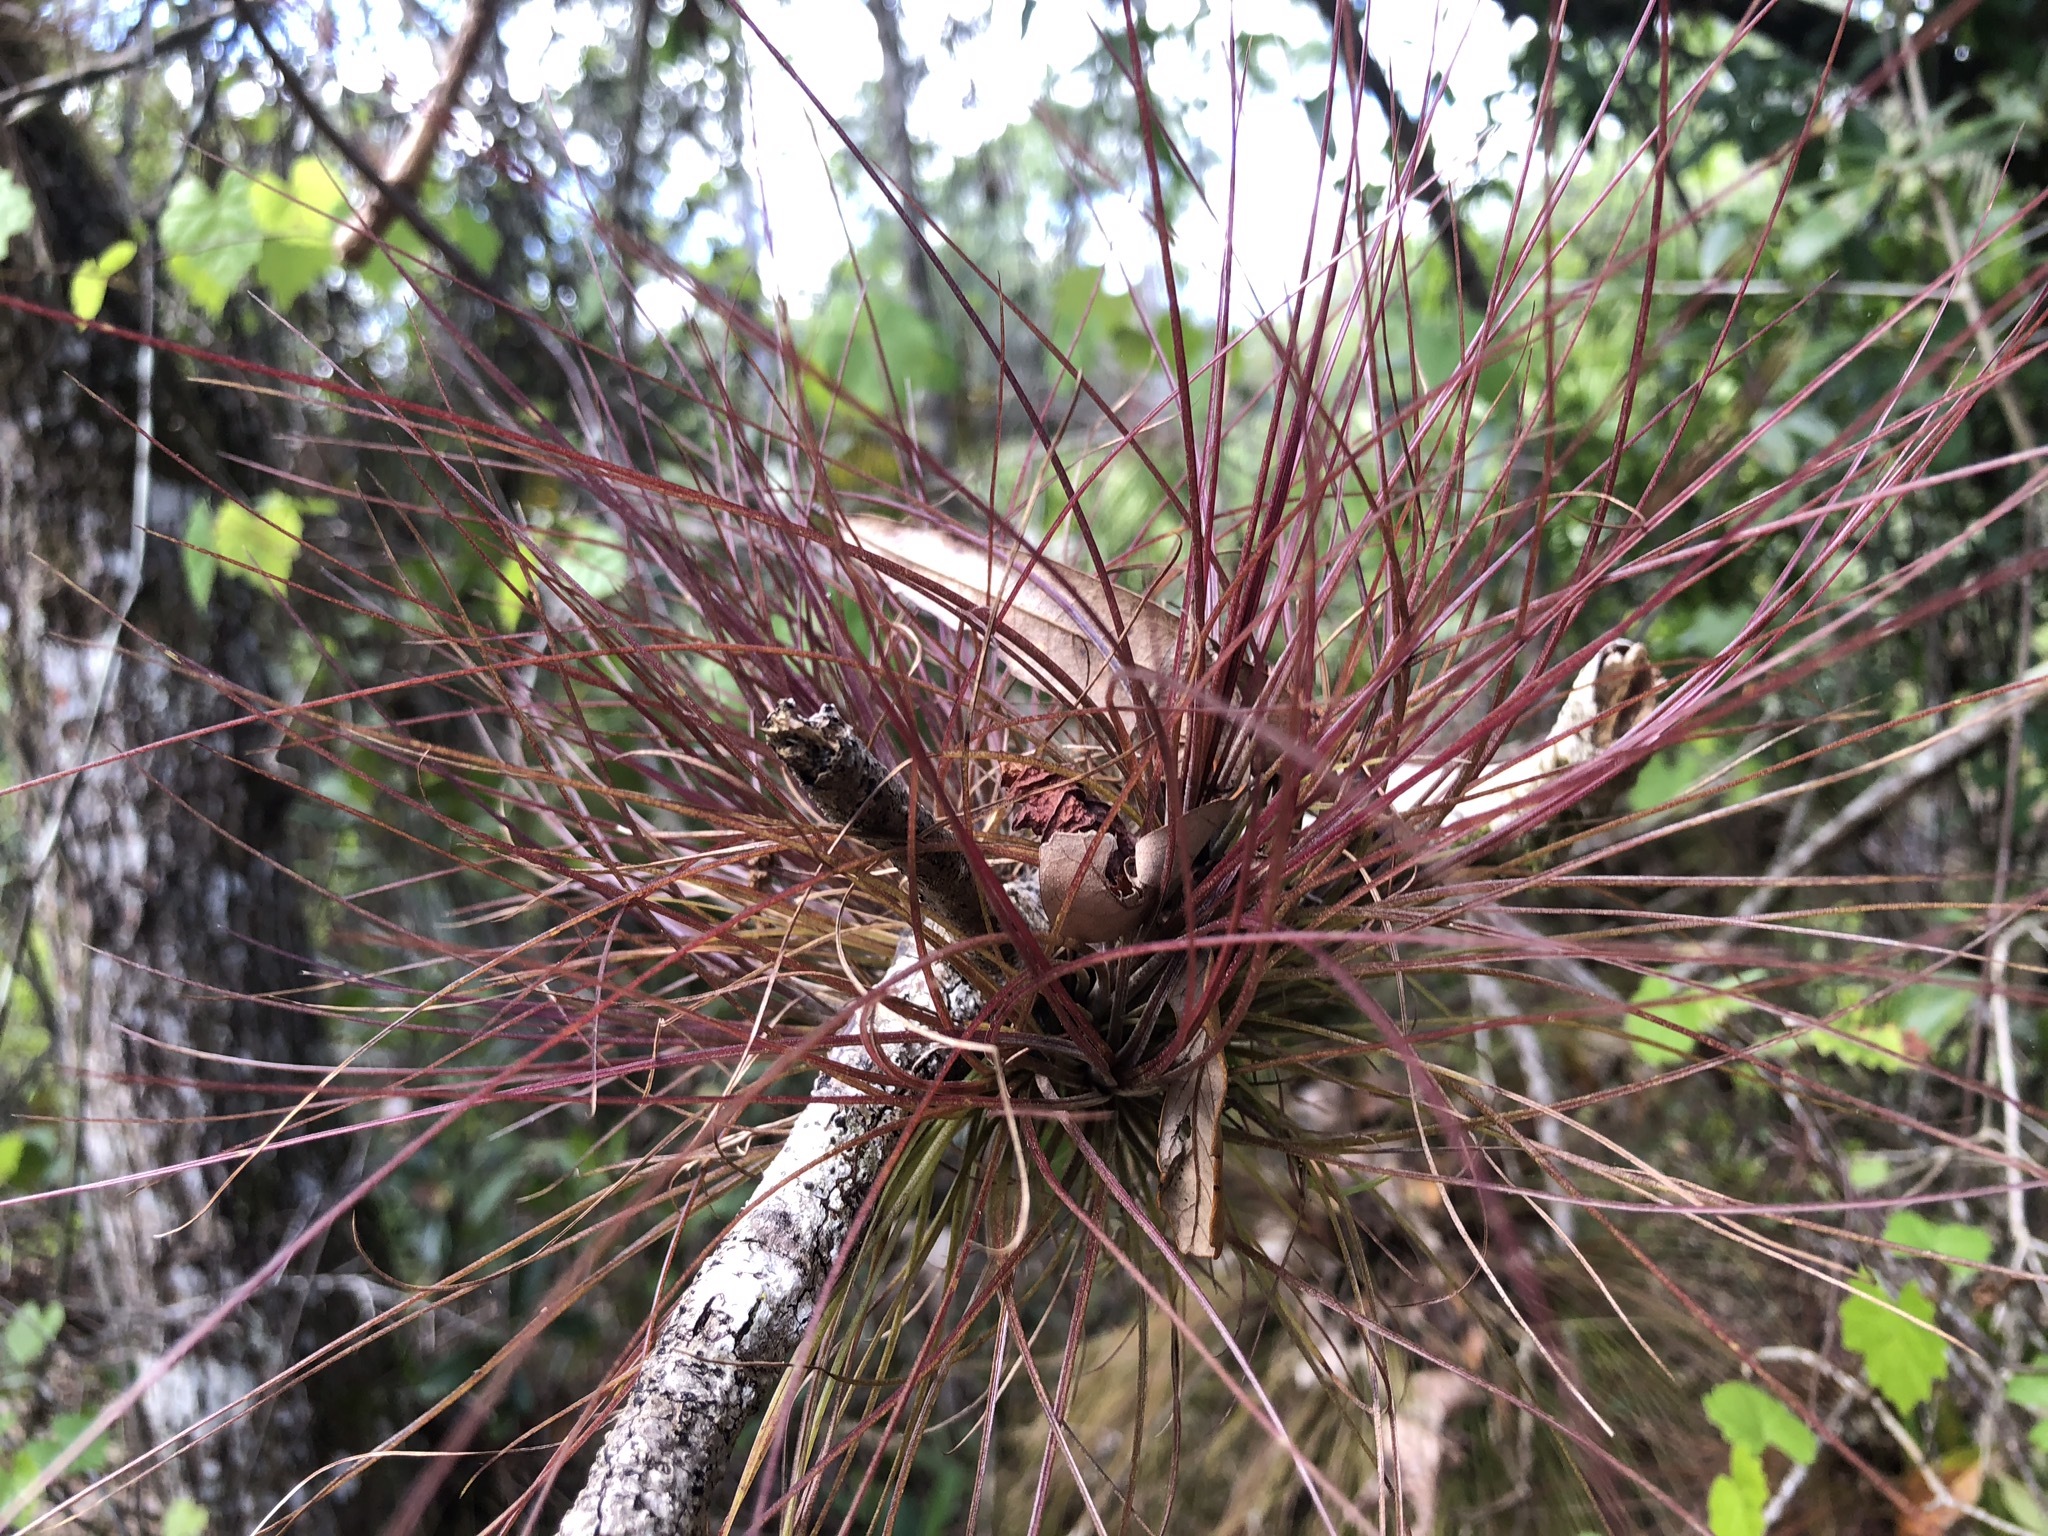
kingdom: Plantae
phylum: Tracheophyta
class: Liliopsida
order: Poales
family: Bromeliaceae
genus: Tillandsia
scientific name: Tillandsia setacea
